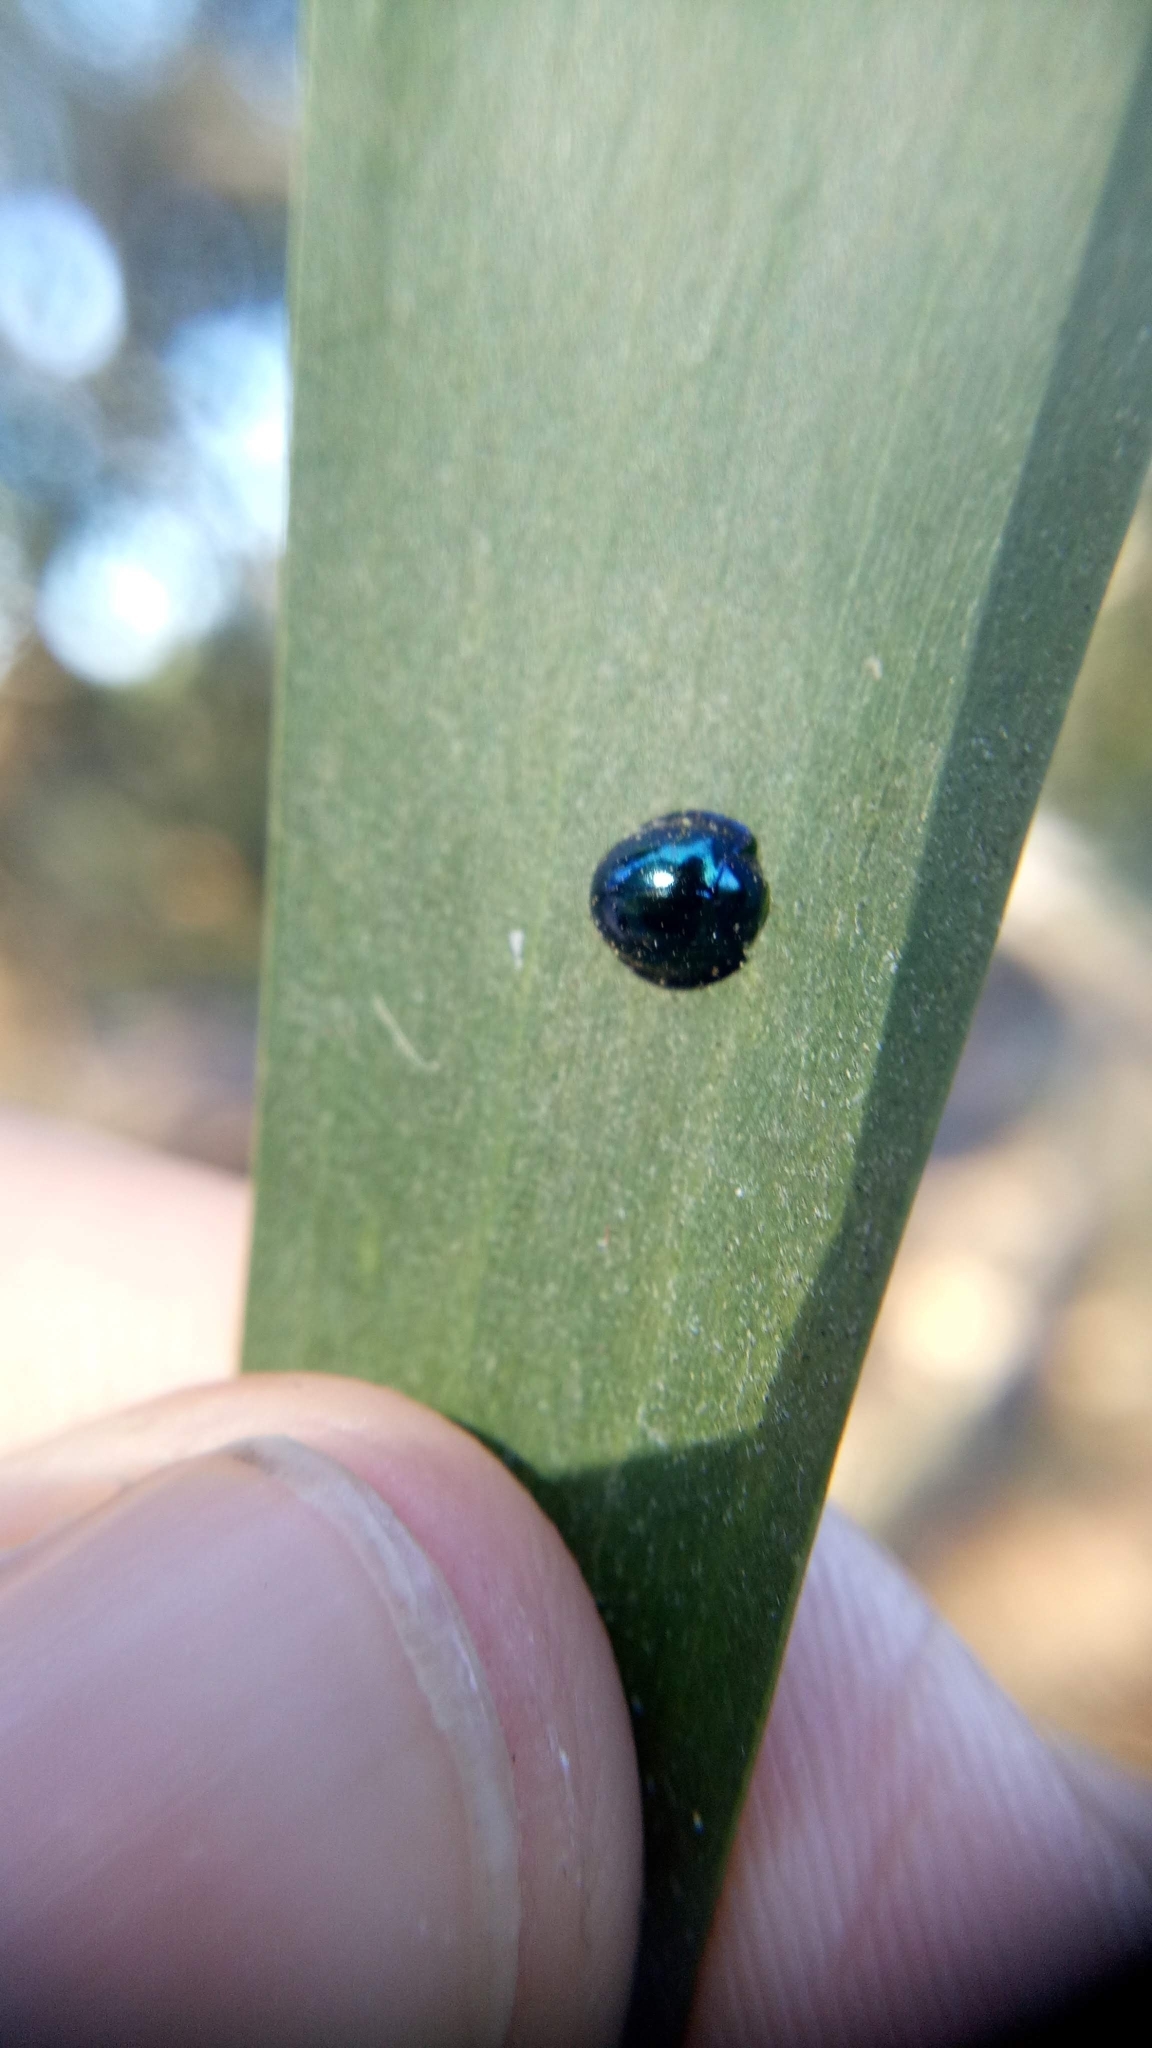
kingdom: Animalia
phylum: Arthropoda
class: Insecta
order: Coleoptera
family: Coccinellidae
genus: Halmus
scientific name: Halmus chalybeus
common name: Steel blue ladybird beetle
